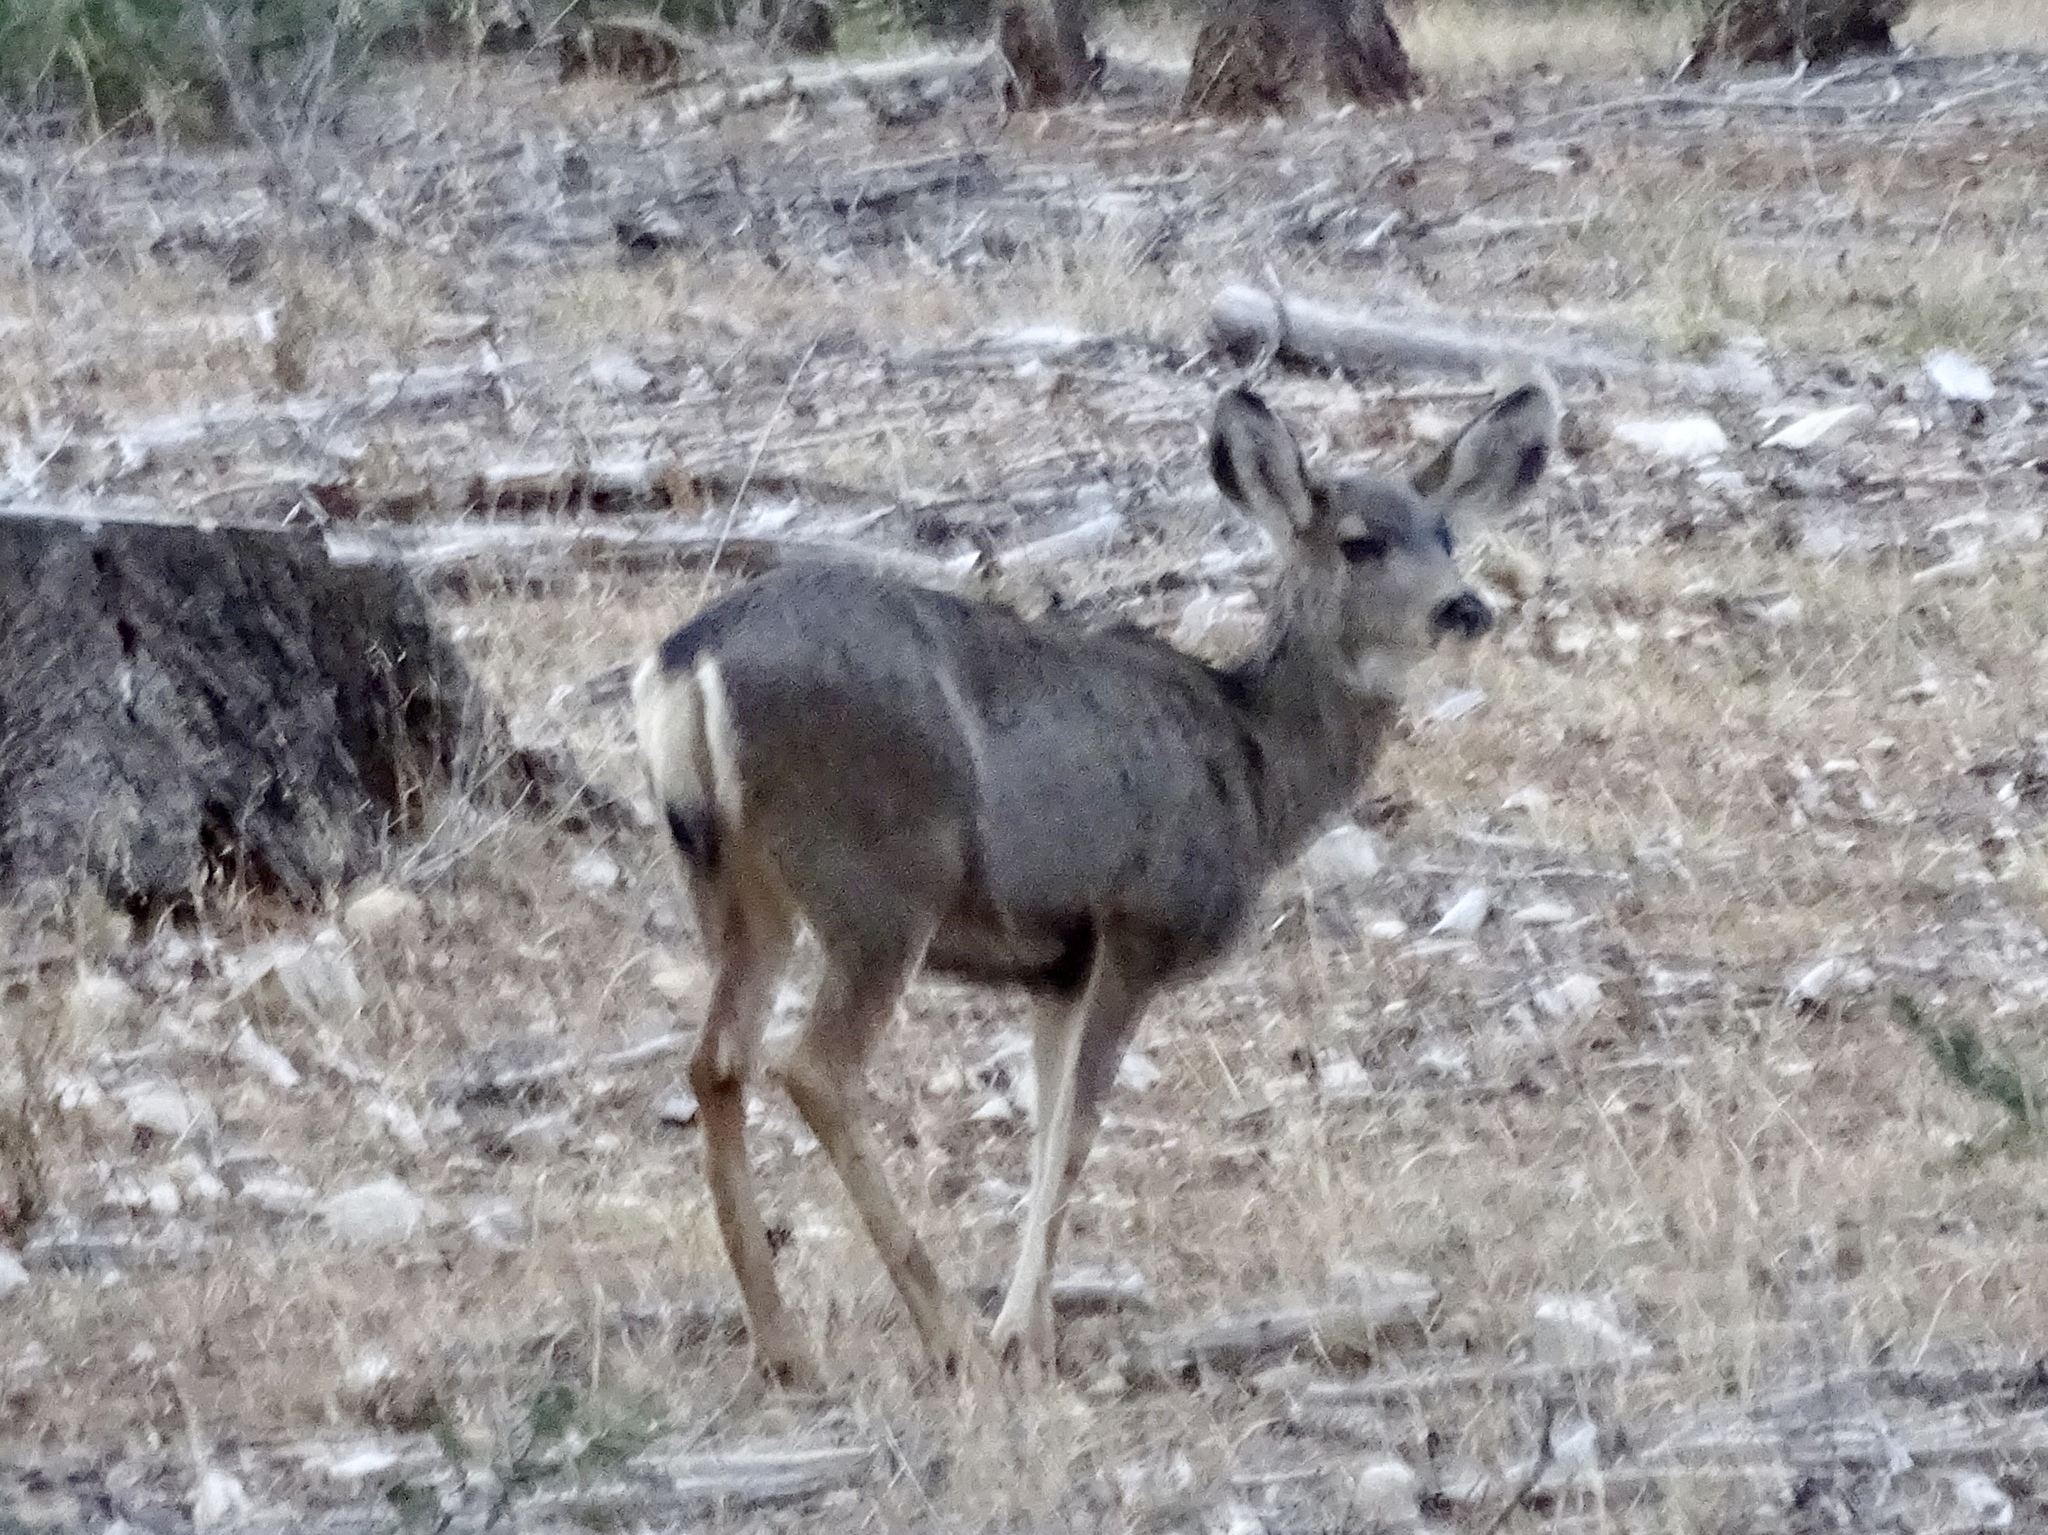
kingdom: Animalia
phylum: Chordata
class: Mammalia
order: Artiodactyla
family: Cervidae
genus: Odocoileus
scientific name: Odocoileus hemionus
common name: Mule deer
